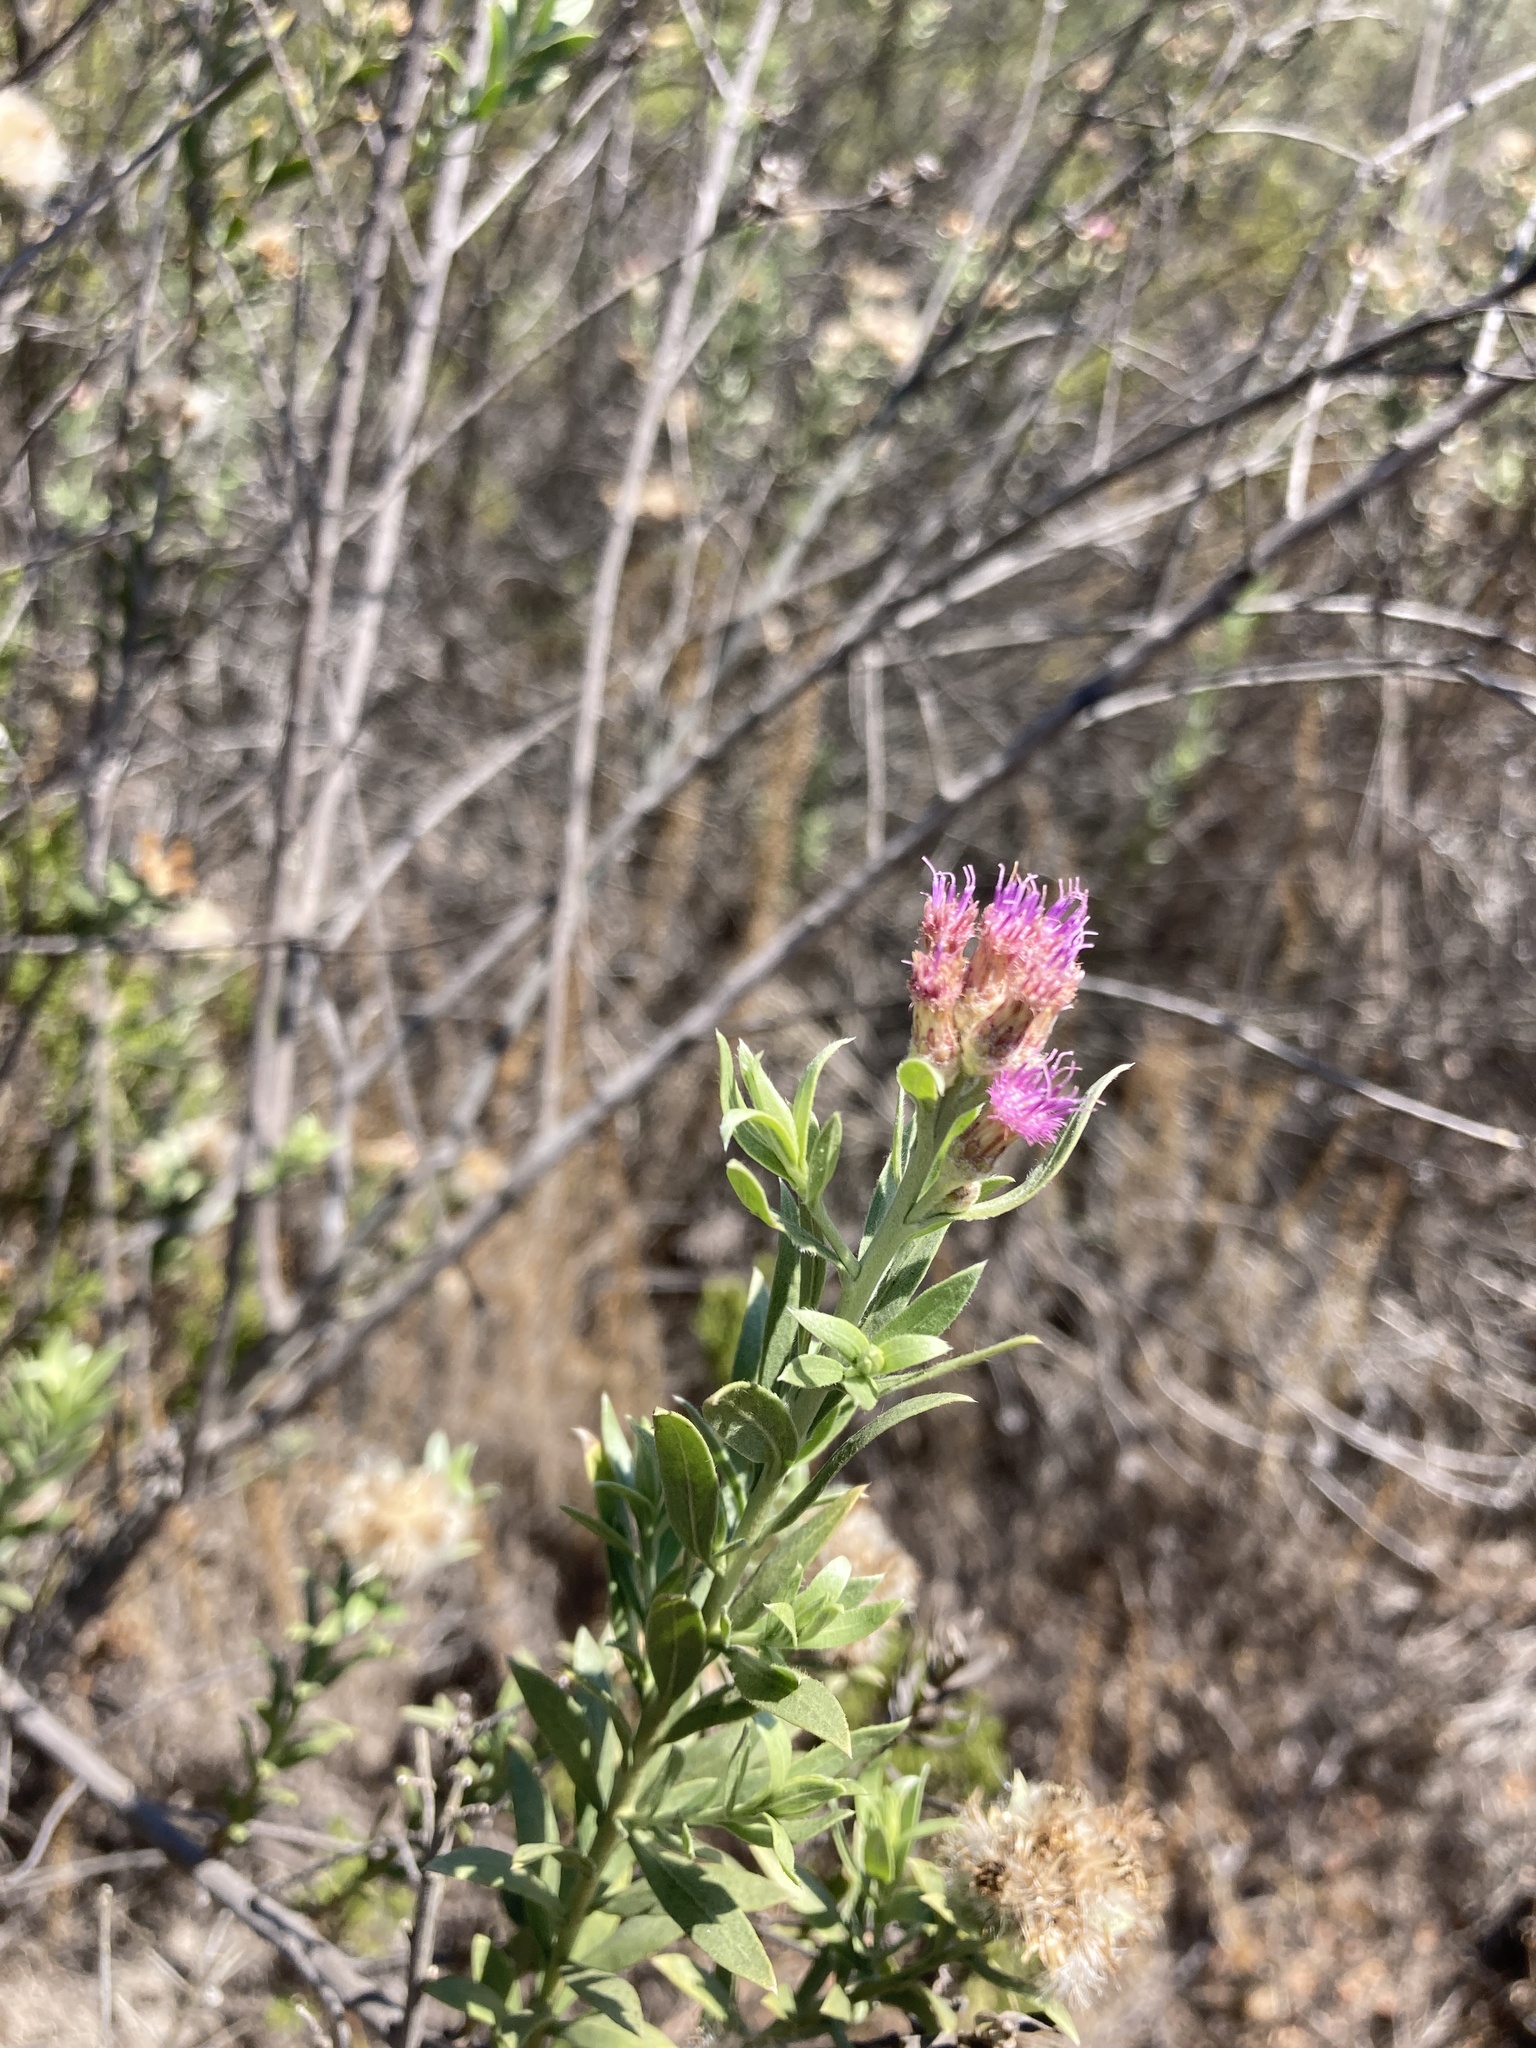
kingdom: Plantae
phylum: Tracheophyta
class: Magnoliopsida
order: Asterales
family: Asteraceae
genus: Pluchea
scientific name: Pluchea sericea
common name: Arrow-weed
